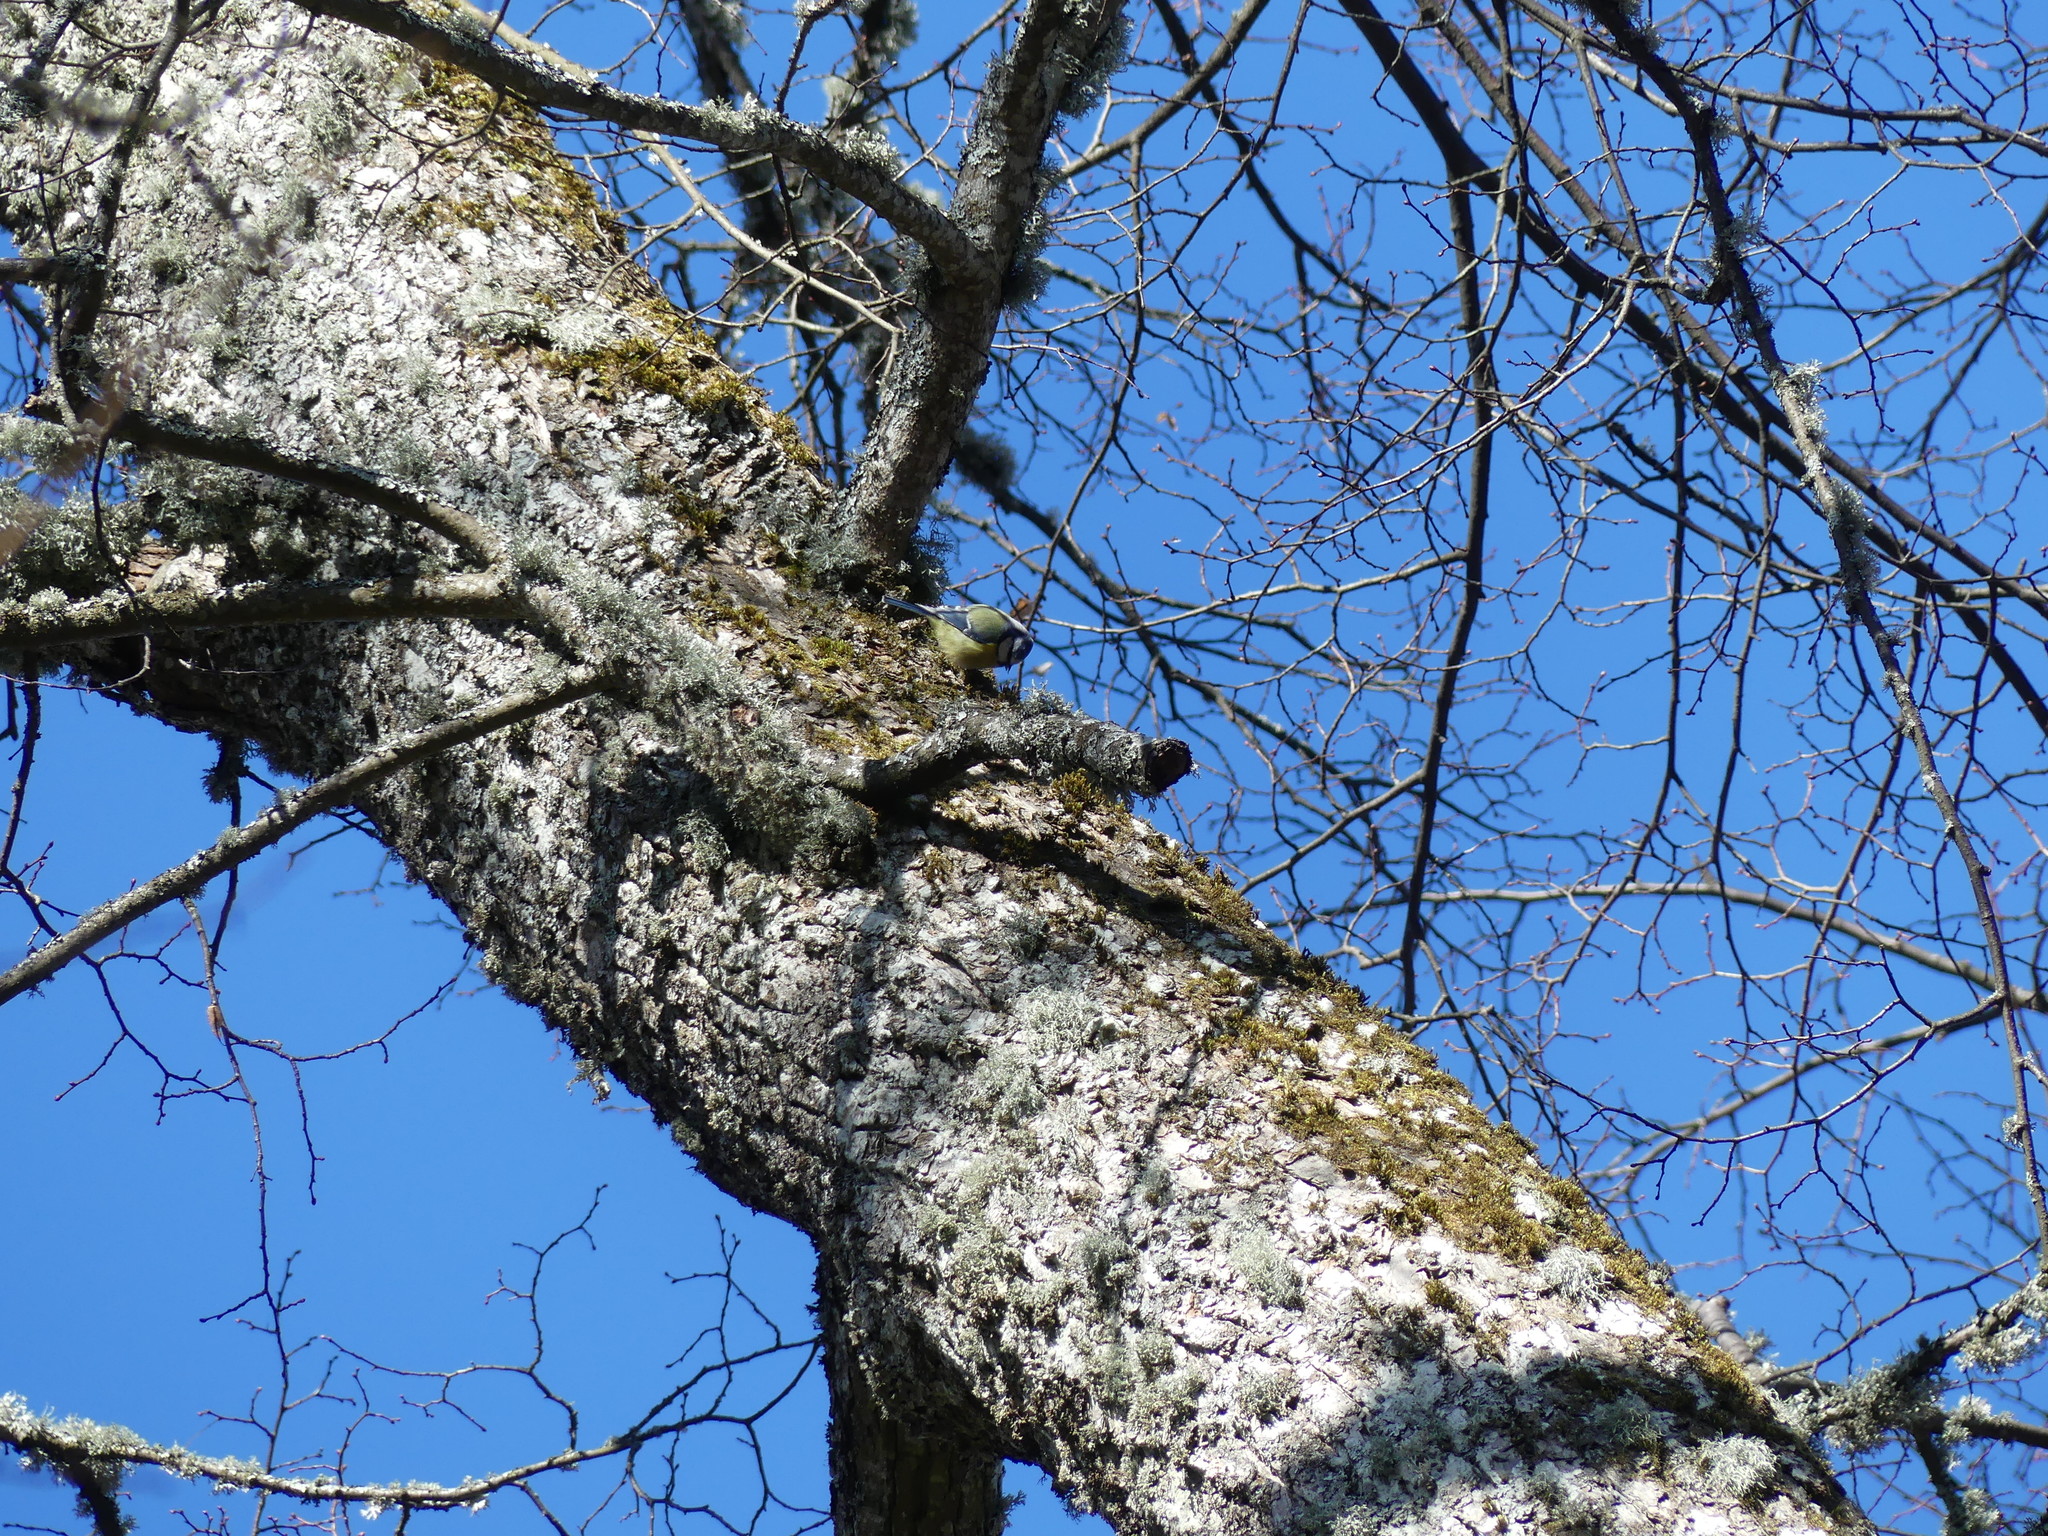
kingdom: Animalia
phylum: Chordata
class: Aves
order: Passeriformes
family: Paridae
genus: Cyanistes
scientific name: Cyanistes caeruleus
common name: Eurasian blue tit
